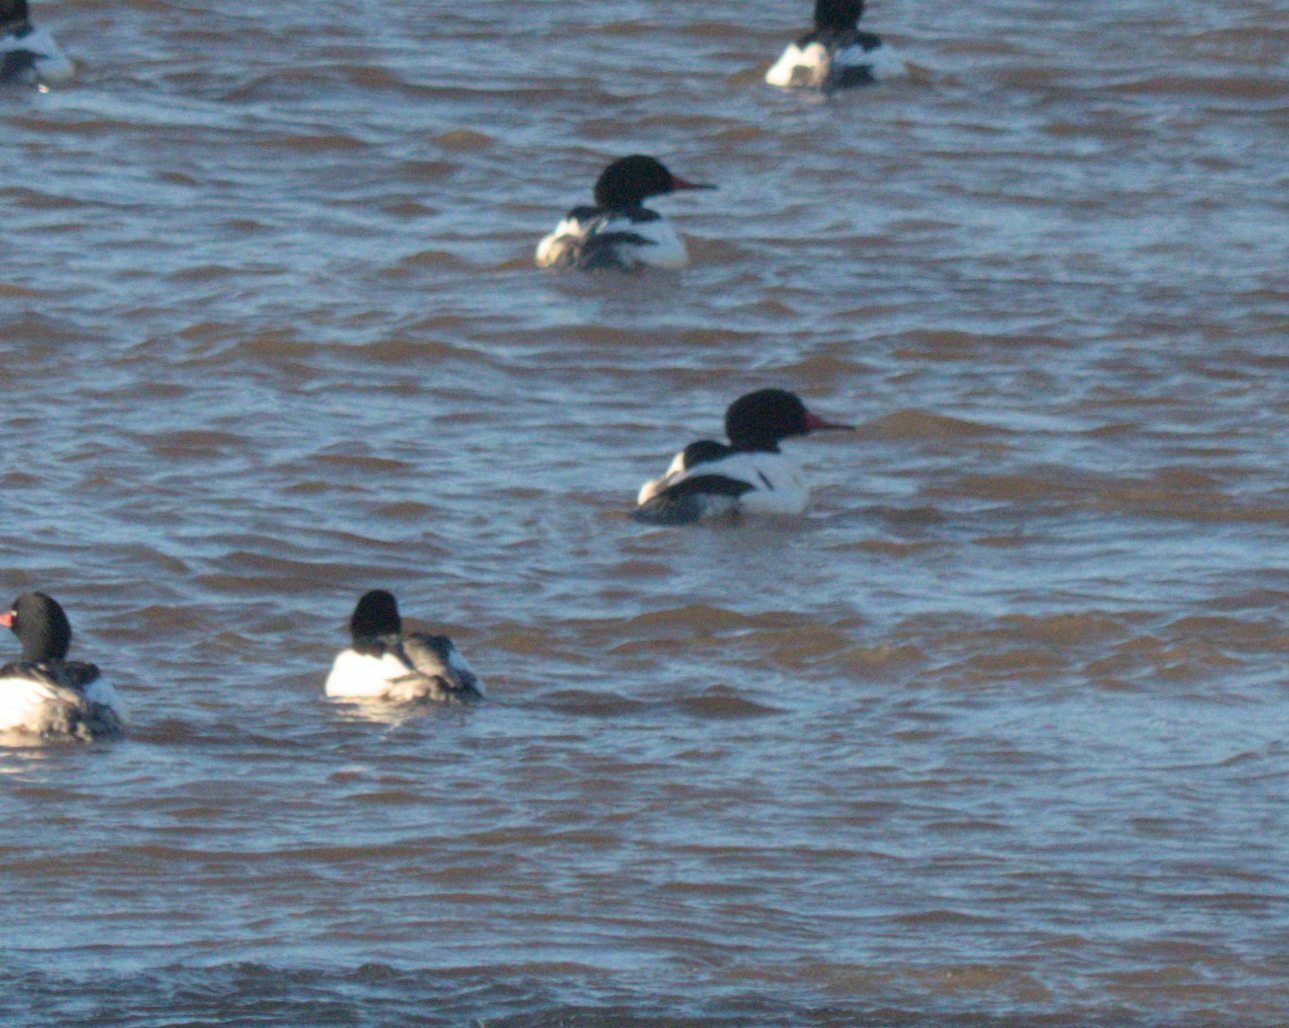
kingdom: Animalia
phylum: Chordata
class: Aves
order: Anseriformes
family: Anatidae
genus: Mergus
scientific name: Mergus merganser
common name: Common merganser
